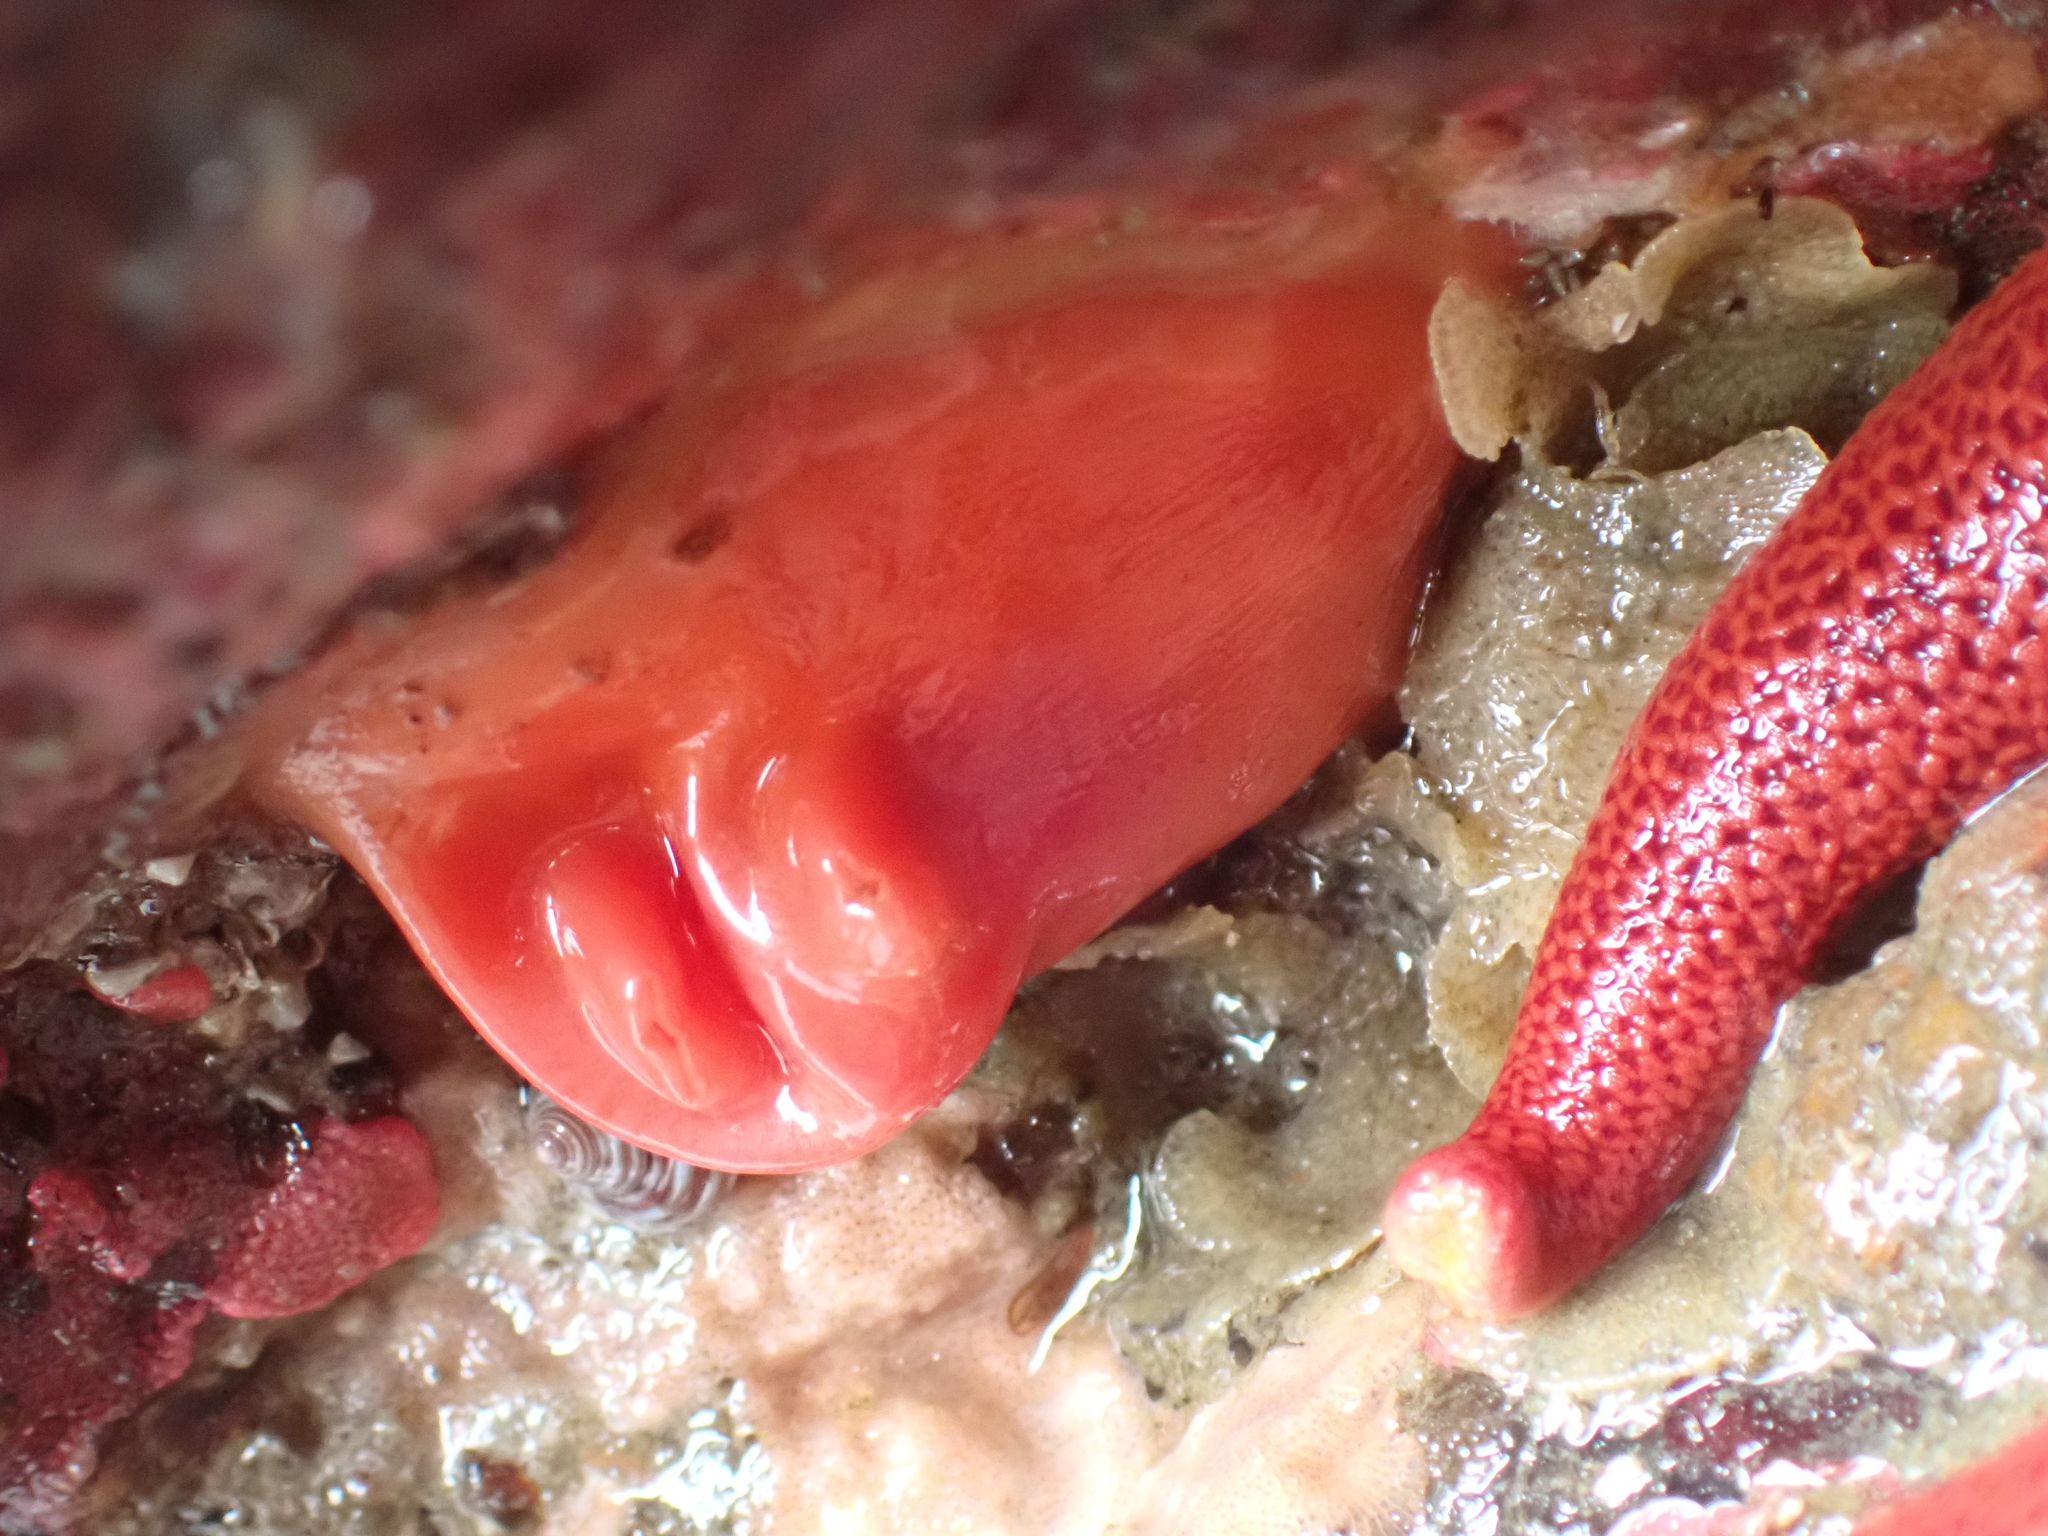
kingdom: Animalia
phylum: Chordata
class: Ascidiacea
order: Stolidobranchia
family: Styelidae
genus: Cnemidocarpa
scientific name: Cnemidocarpa finmarkiensis
